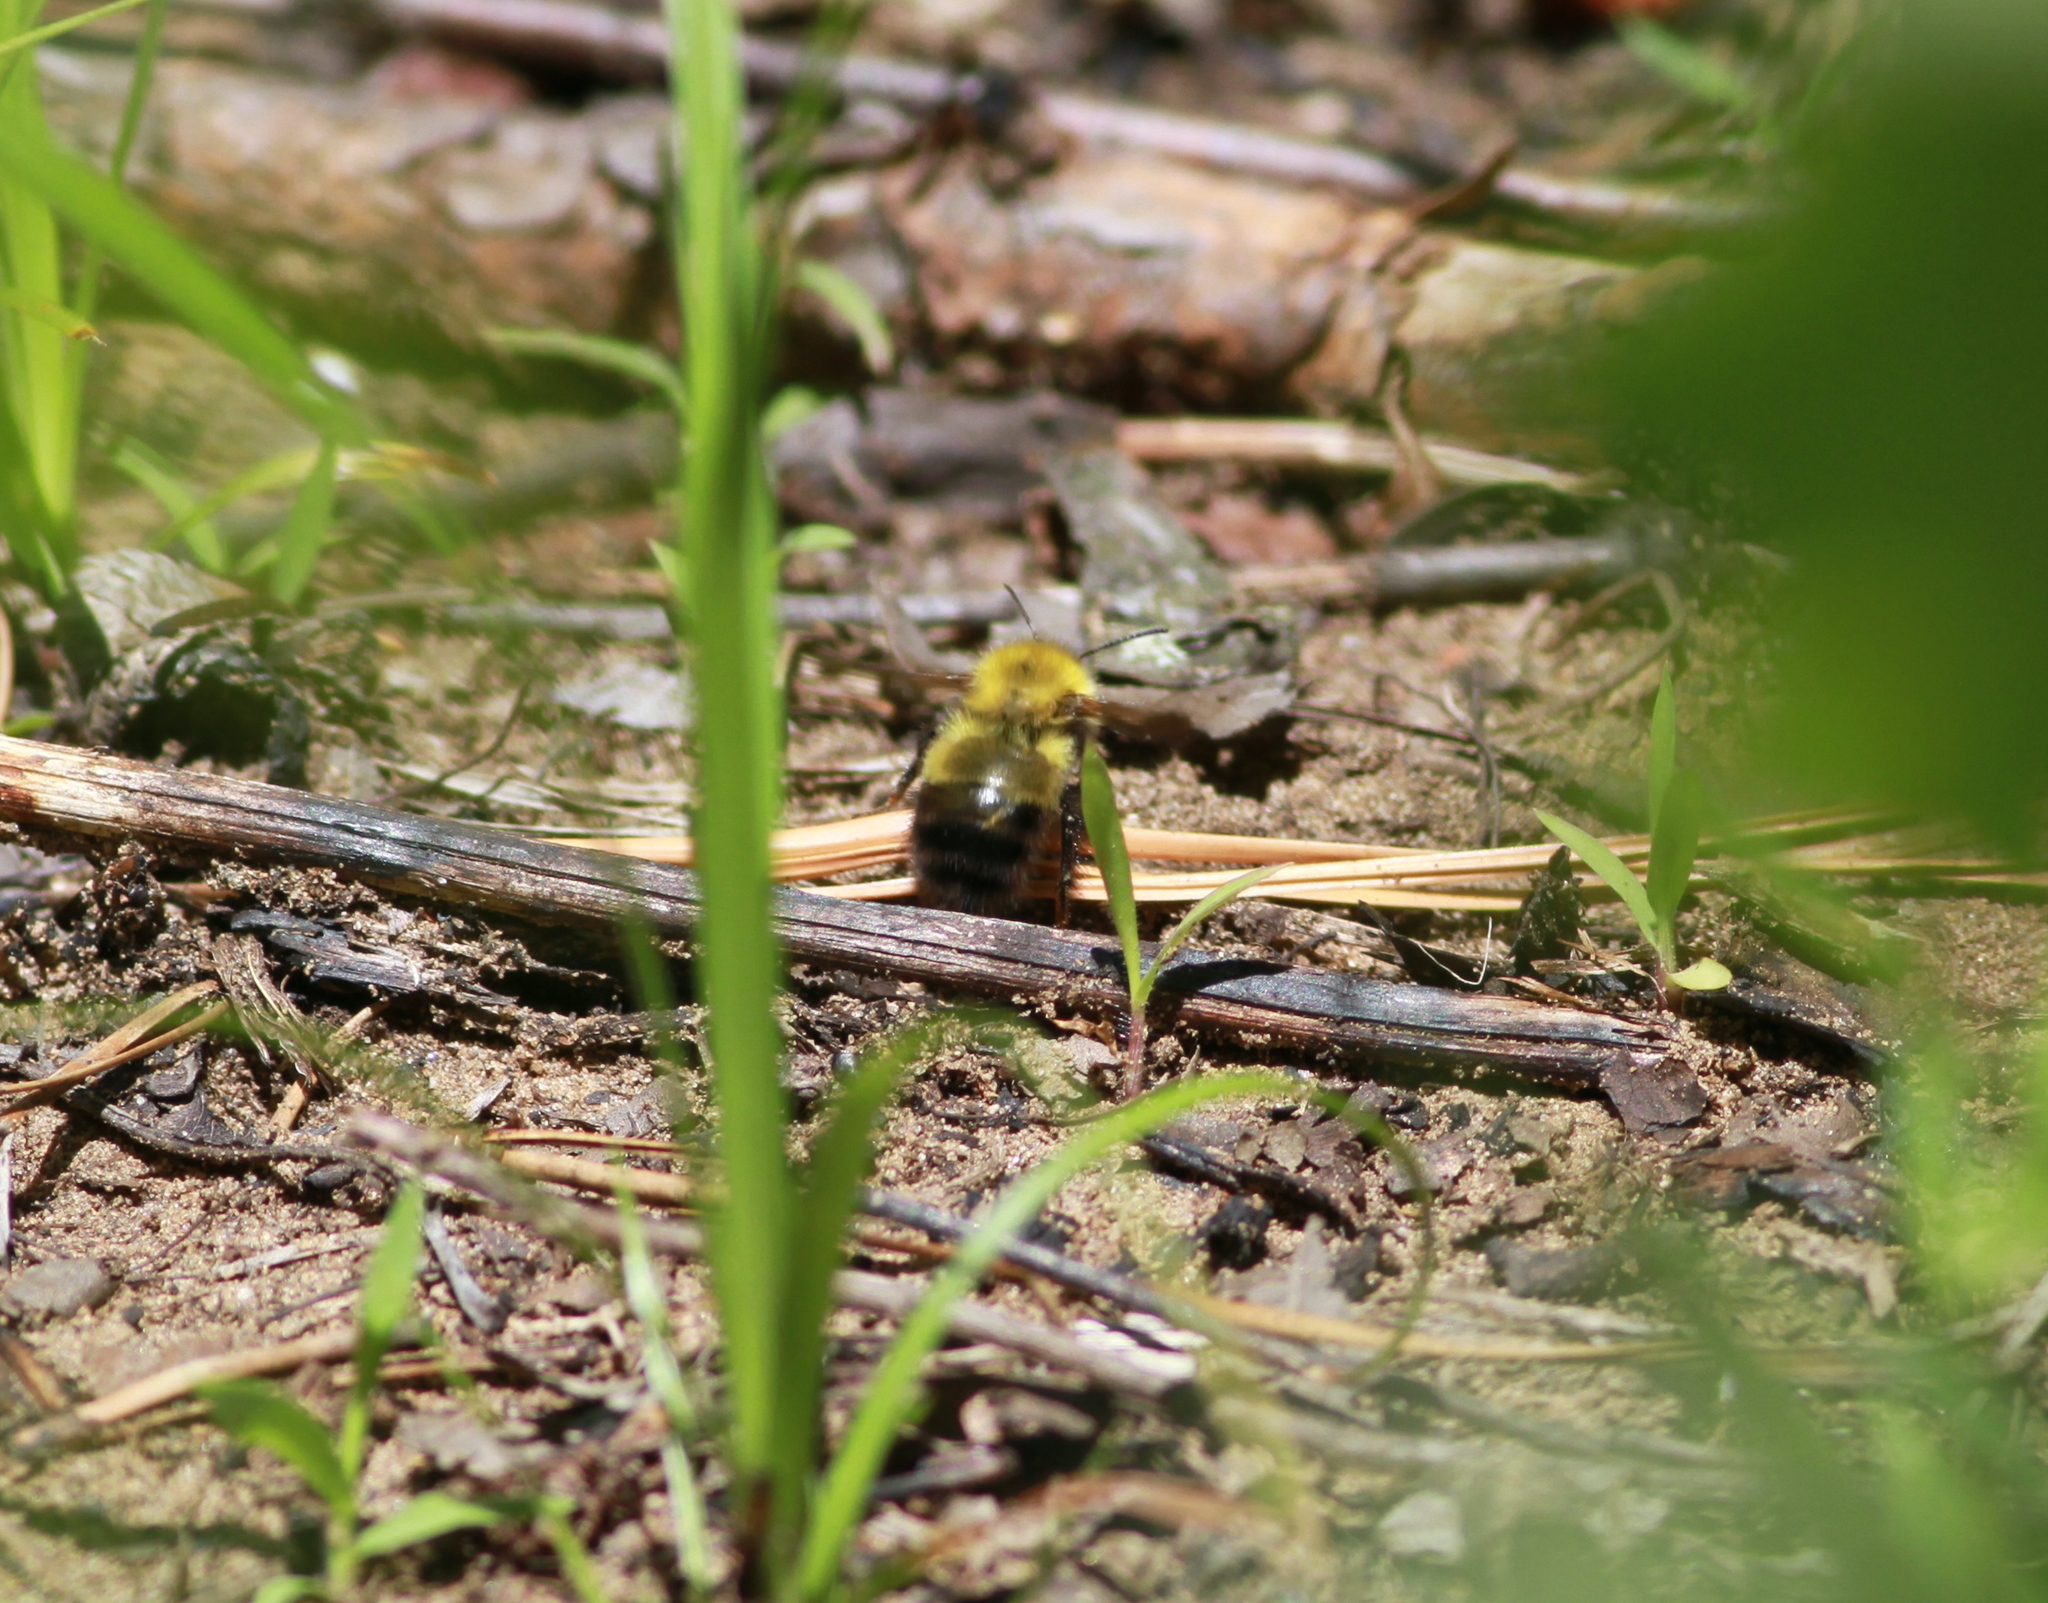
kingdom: Animalia
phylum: Arthropoda
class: Insecta
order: Hymenoptera
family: Apidae
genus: Bombus
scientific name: Bombus perplexus
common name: Confusing bumble bee
